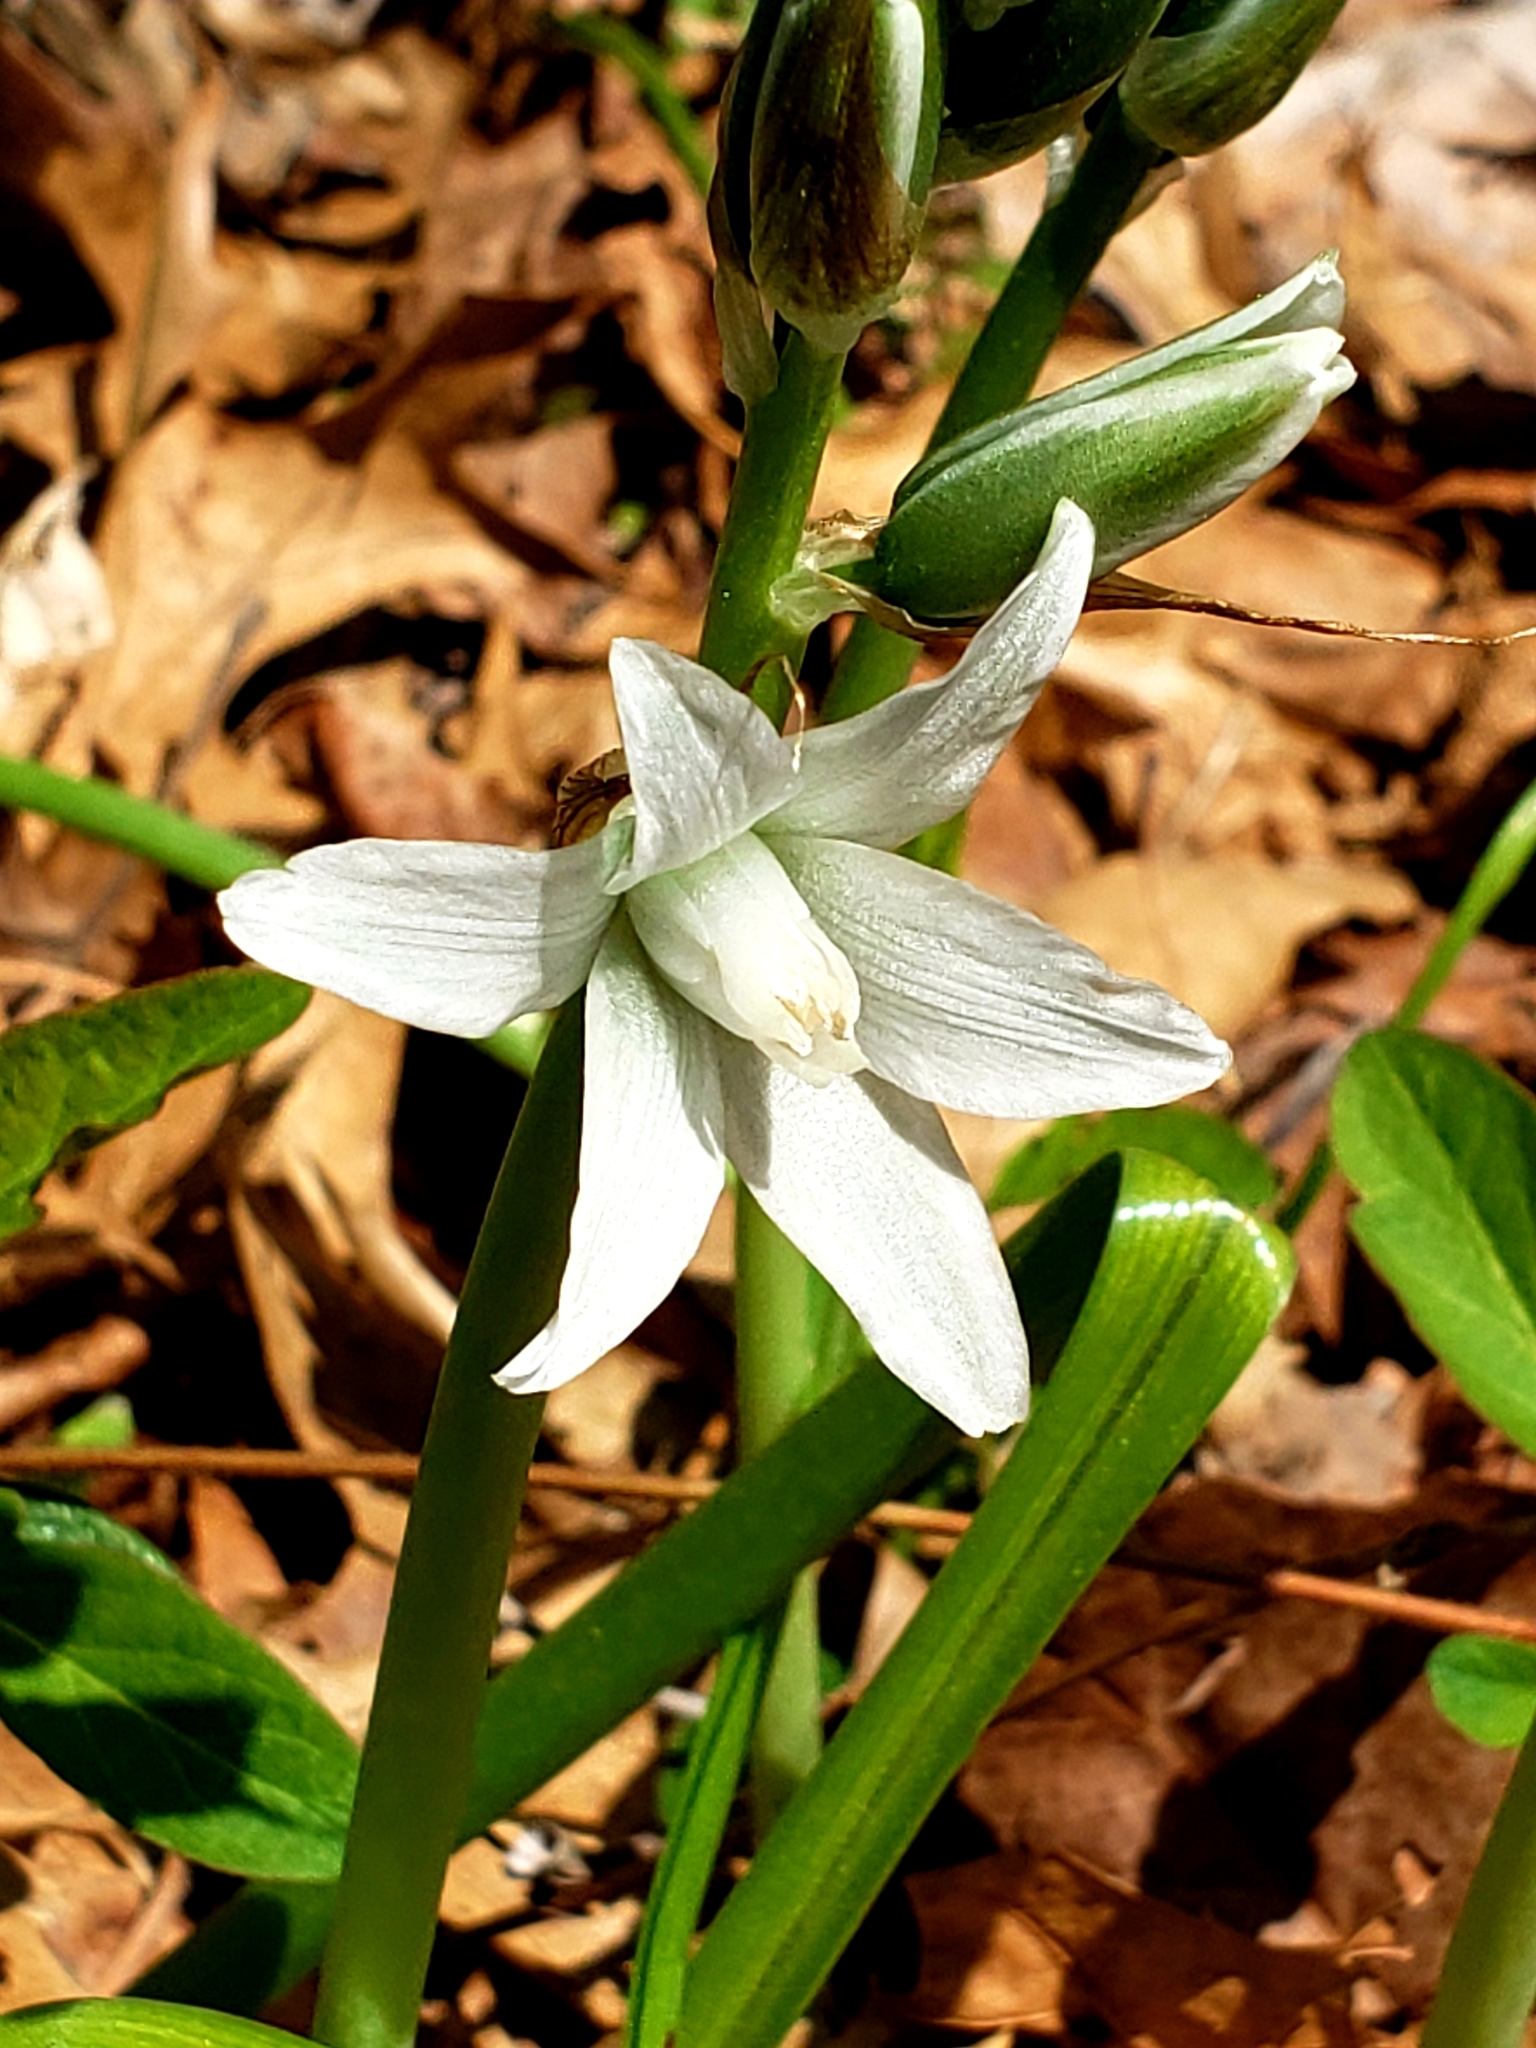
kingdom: Plantae
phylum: Tracheophyta
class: Liliopsida
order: Asparagales
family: Asparagaceae
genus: Ornithogalum
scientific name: Ornithogalum nutans
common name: Drooping star-of-bethlehem
